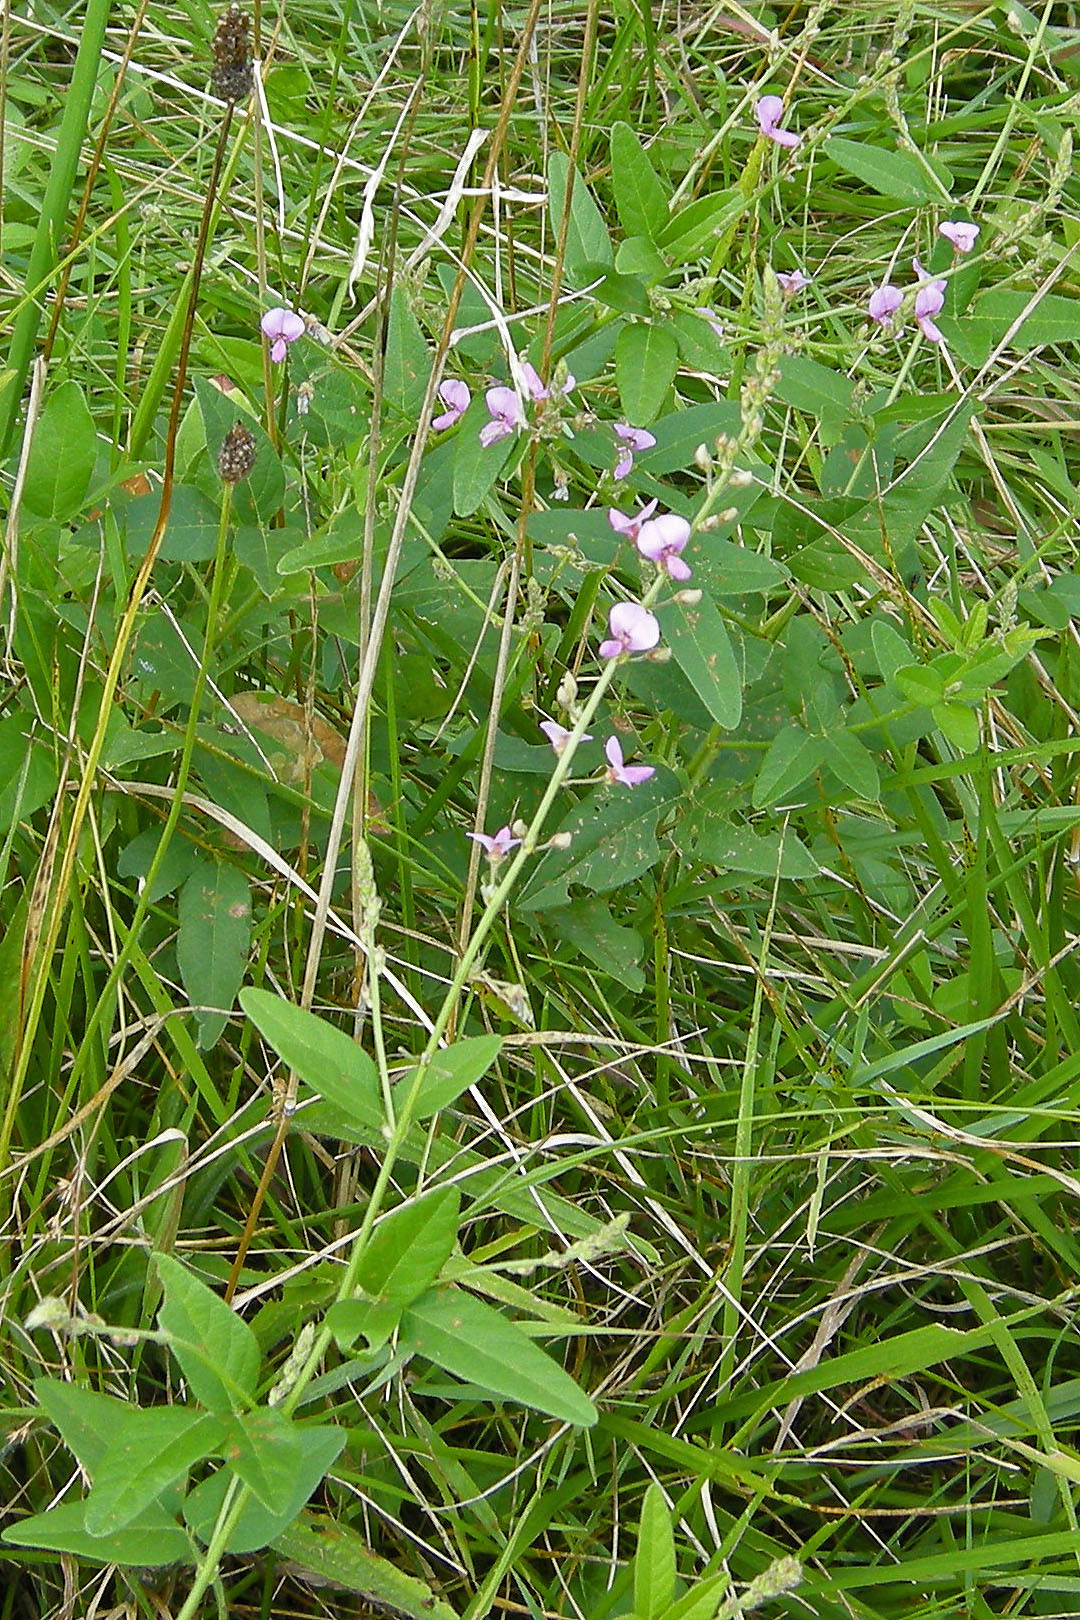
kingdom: Plantae
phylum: Tracheophyta
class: Magnoliopsida
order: Fabales
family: Fabaceae
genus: Desmodium
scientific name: Desmodium
